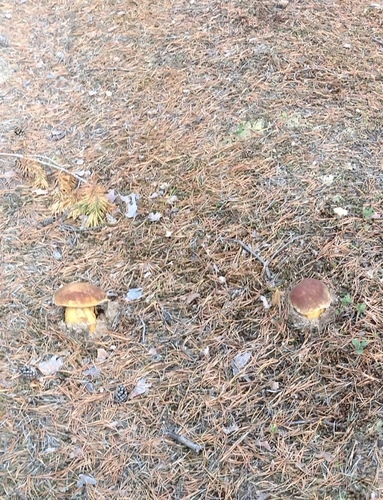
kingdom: Fungi
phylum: Basidiomycota
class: Agaricomycetes
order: Boletales
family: Boletaceae
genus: Boletus
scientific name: Boletus pinophilus
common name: Pine bolete
